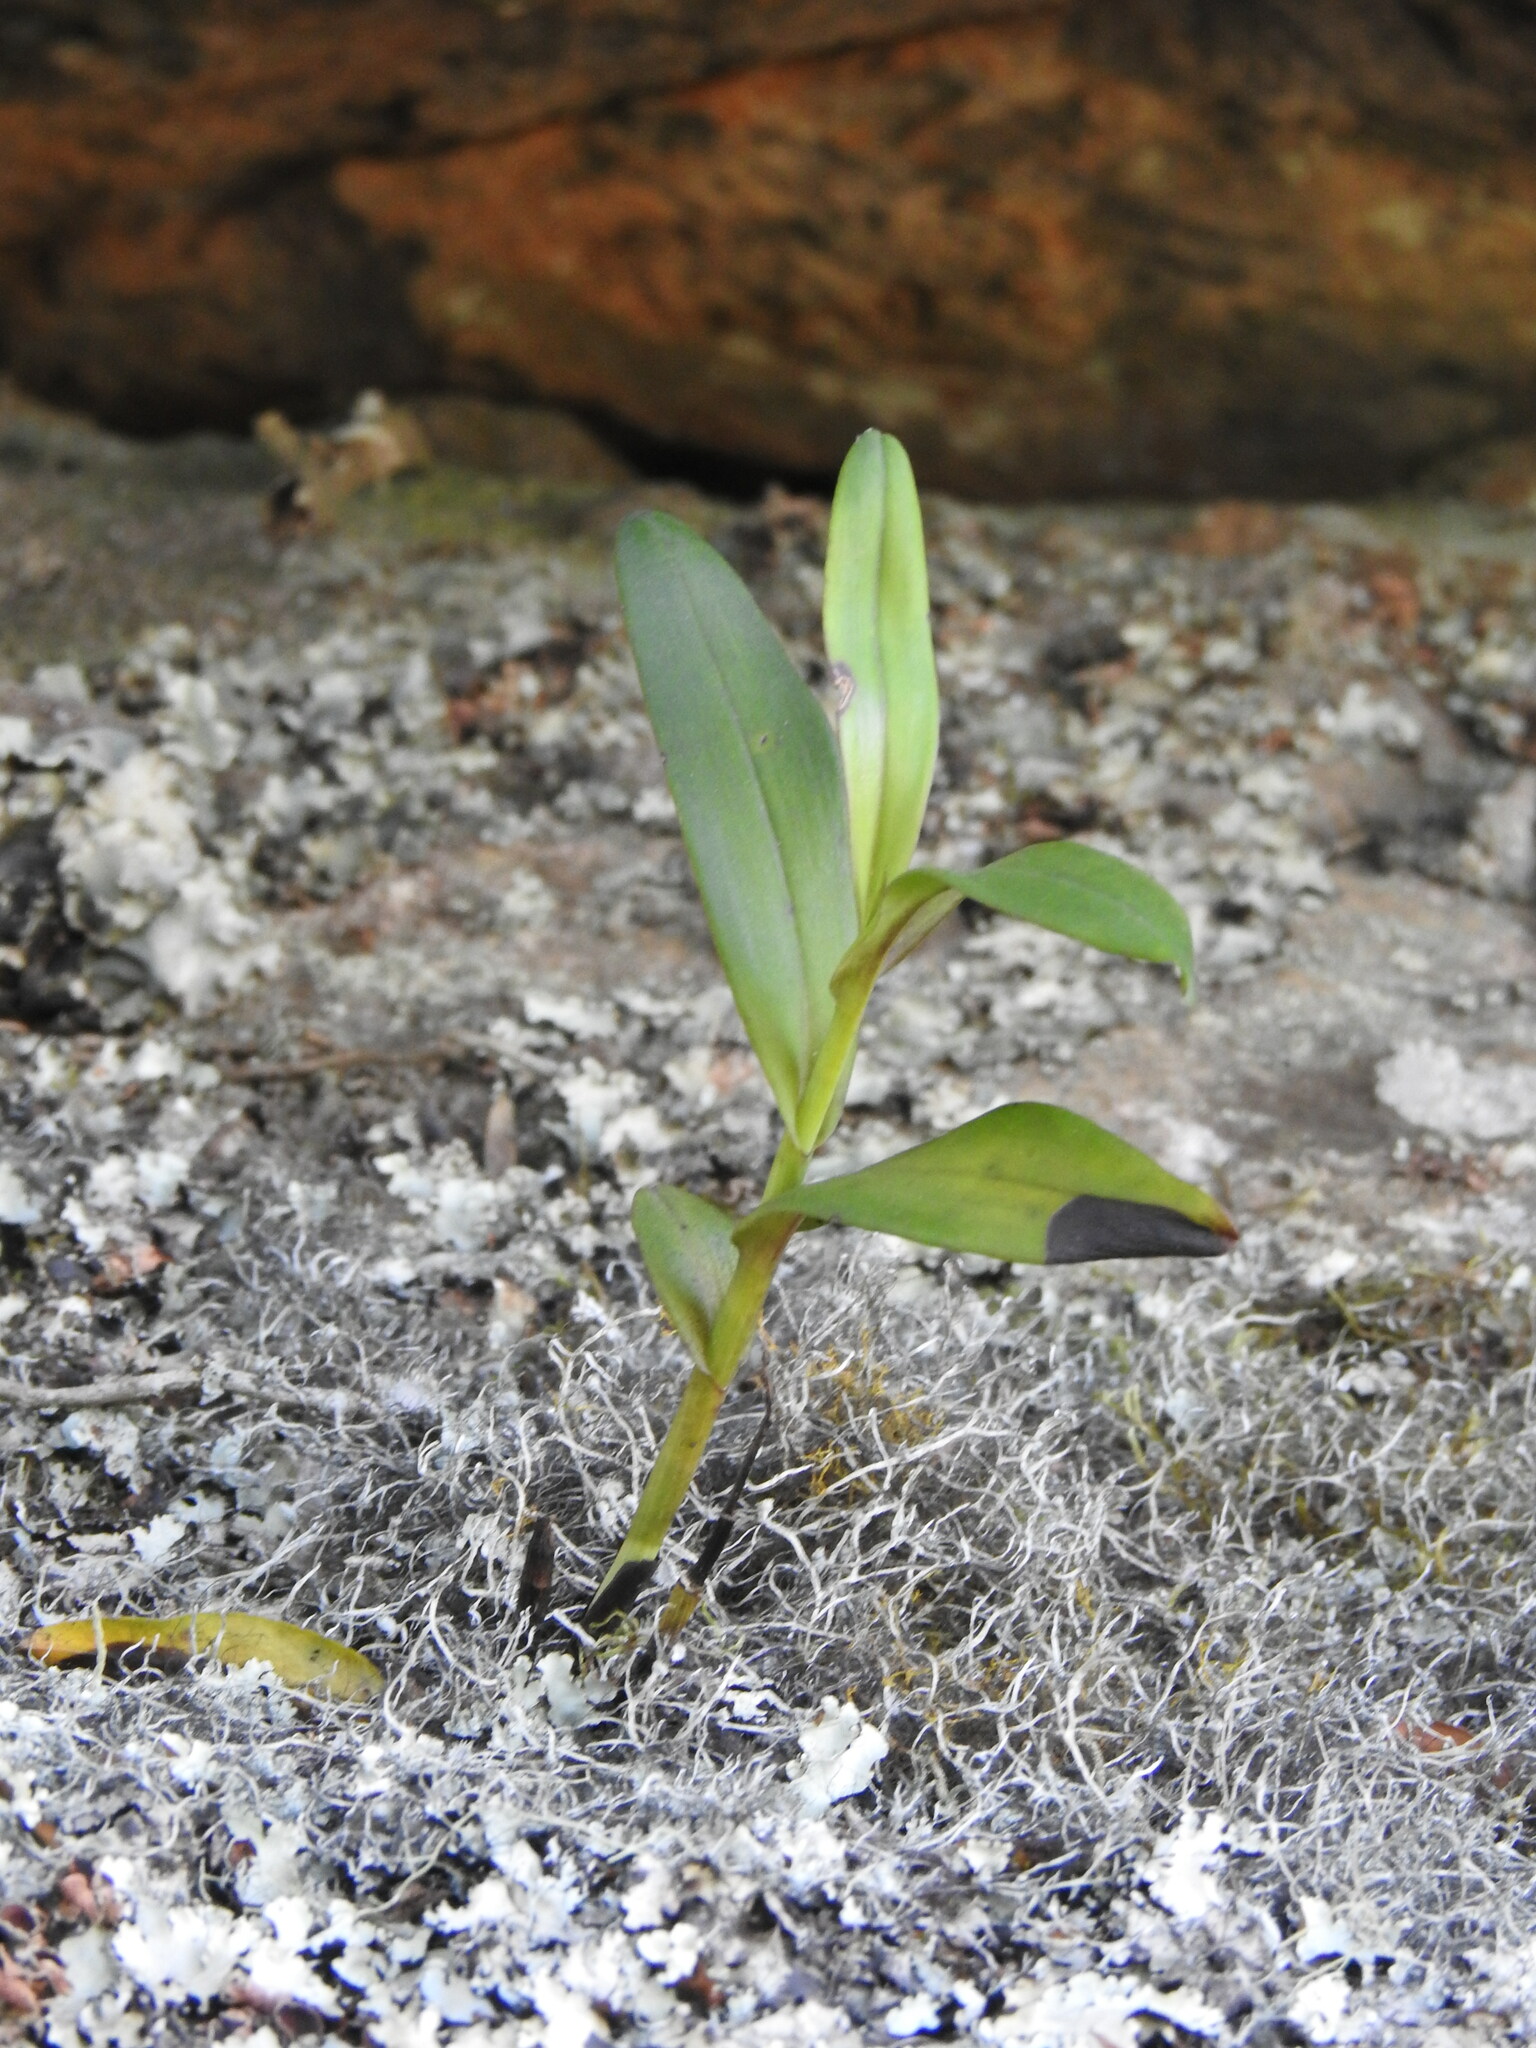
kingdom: Plantae
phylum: Tracheophyta
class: Liliopsida
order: Asparagales
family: Orchidaceae
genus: Polystachya
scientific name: Polystachya transvaalensis
